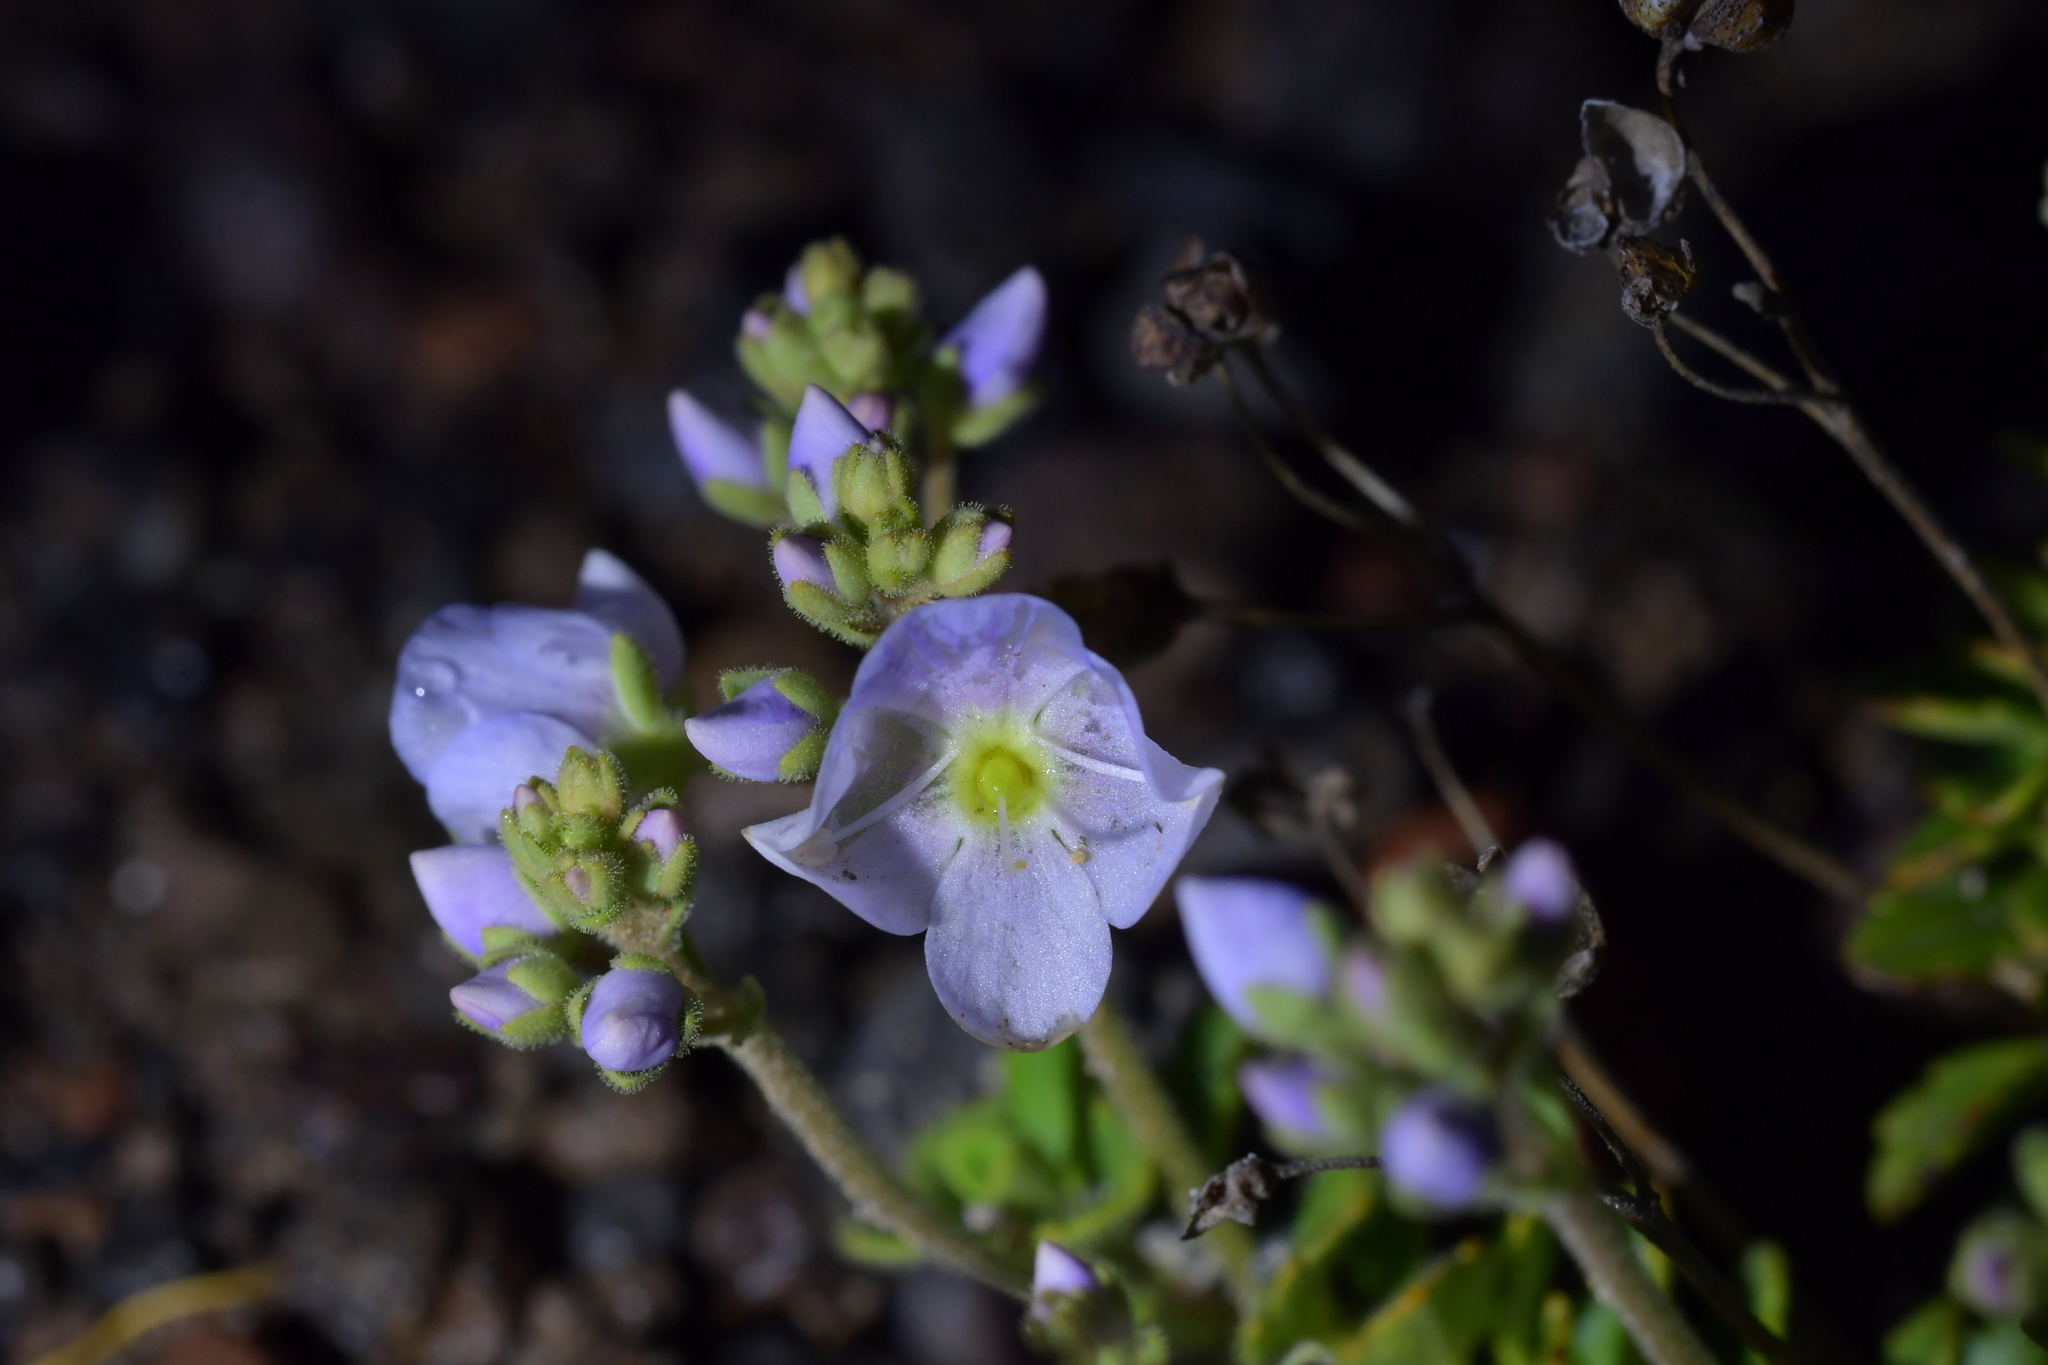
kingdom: Plantae
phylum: Tracheophyta
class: Magnoliopsida
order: Lamiales
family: Plantaginaceae
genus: Veronica
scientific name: Veronica hookeriana
